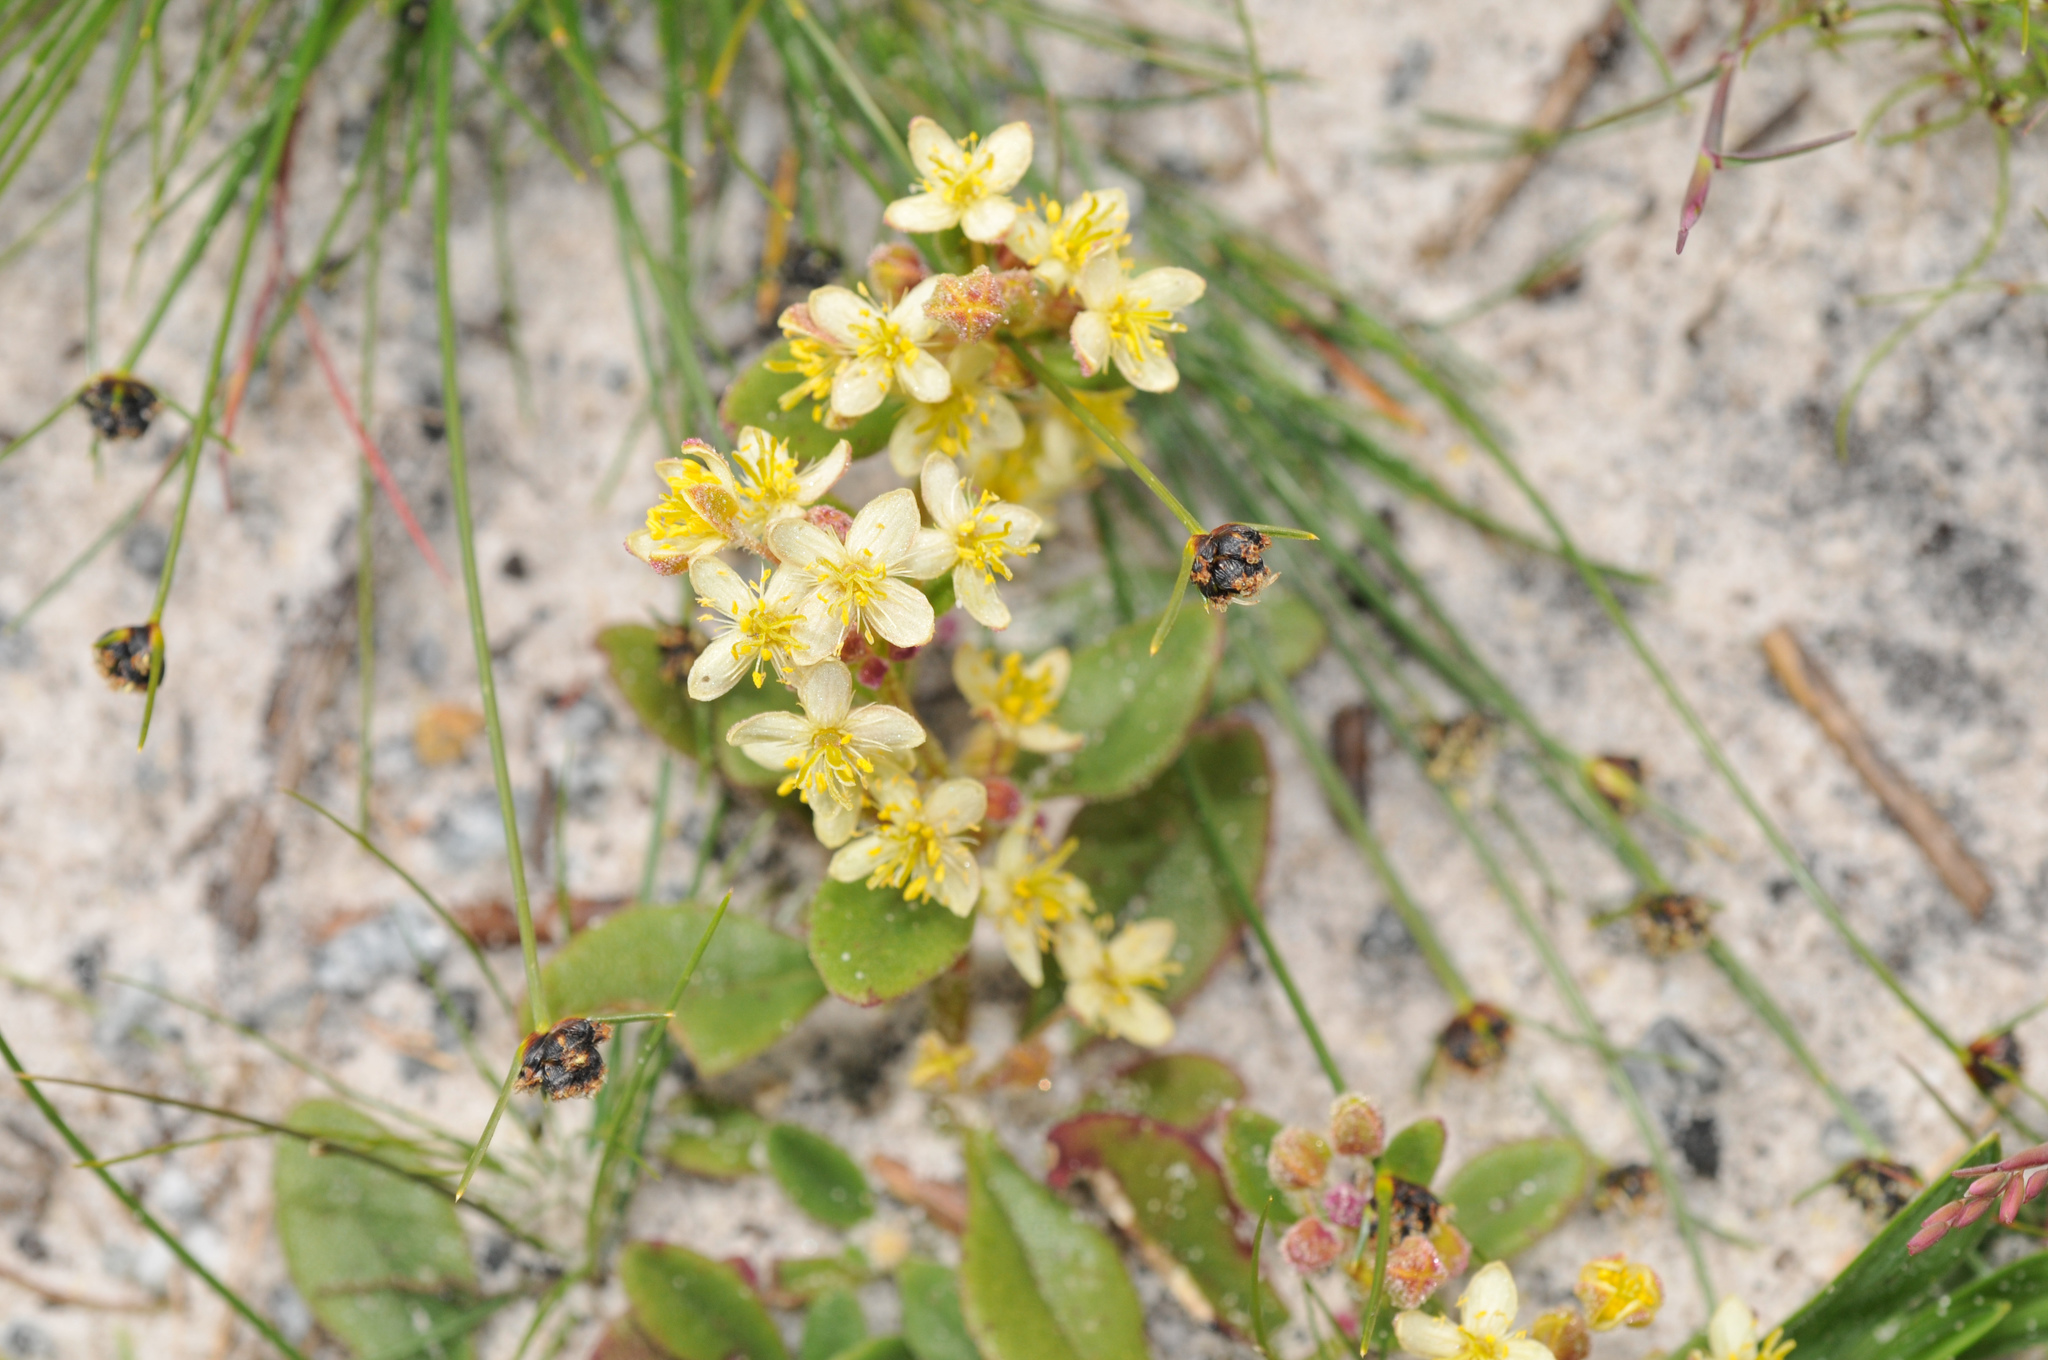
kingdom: Plantae
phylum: Tracheophyta
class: Magnoliopsida
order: Caryophyllales
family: Aizoaceae
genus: Tetragonia
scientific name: Tetragonia nigrescens
